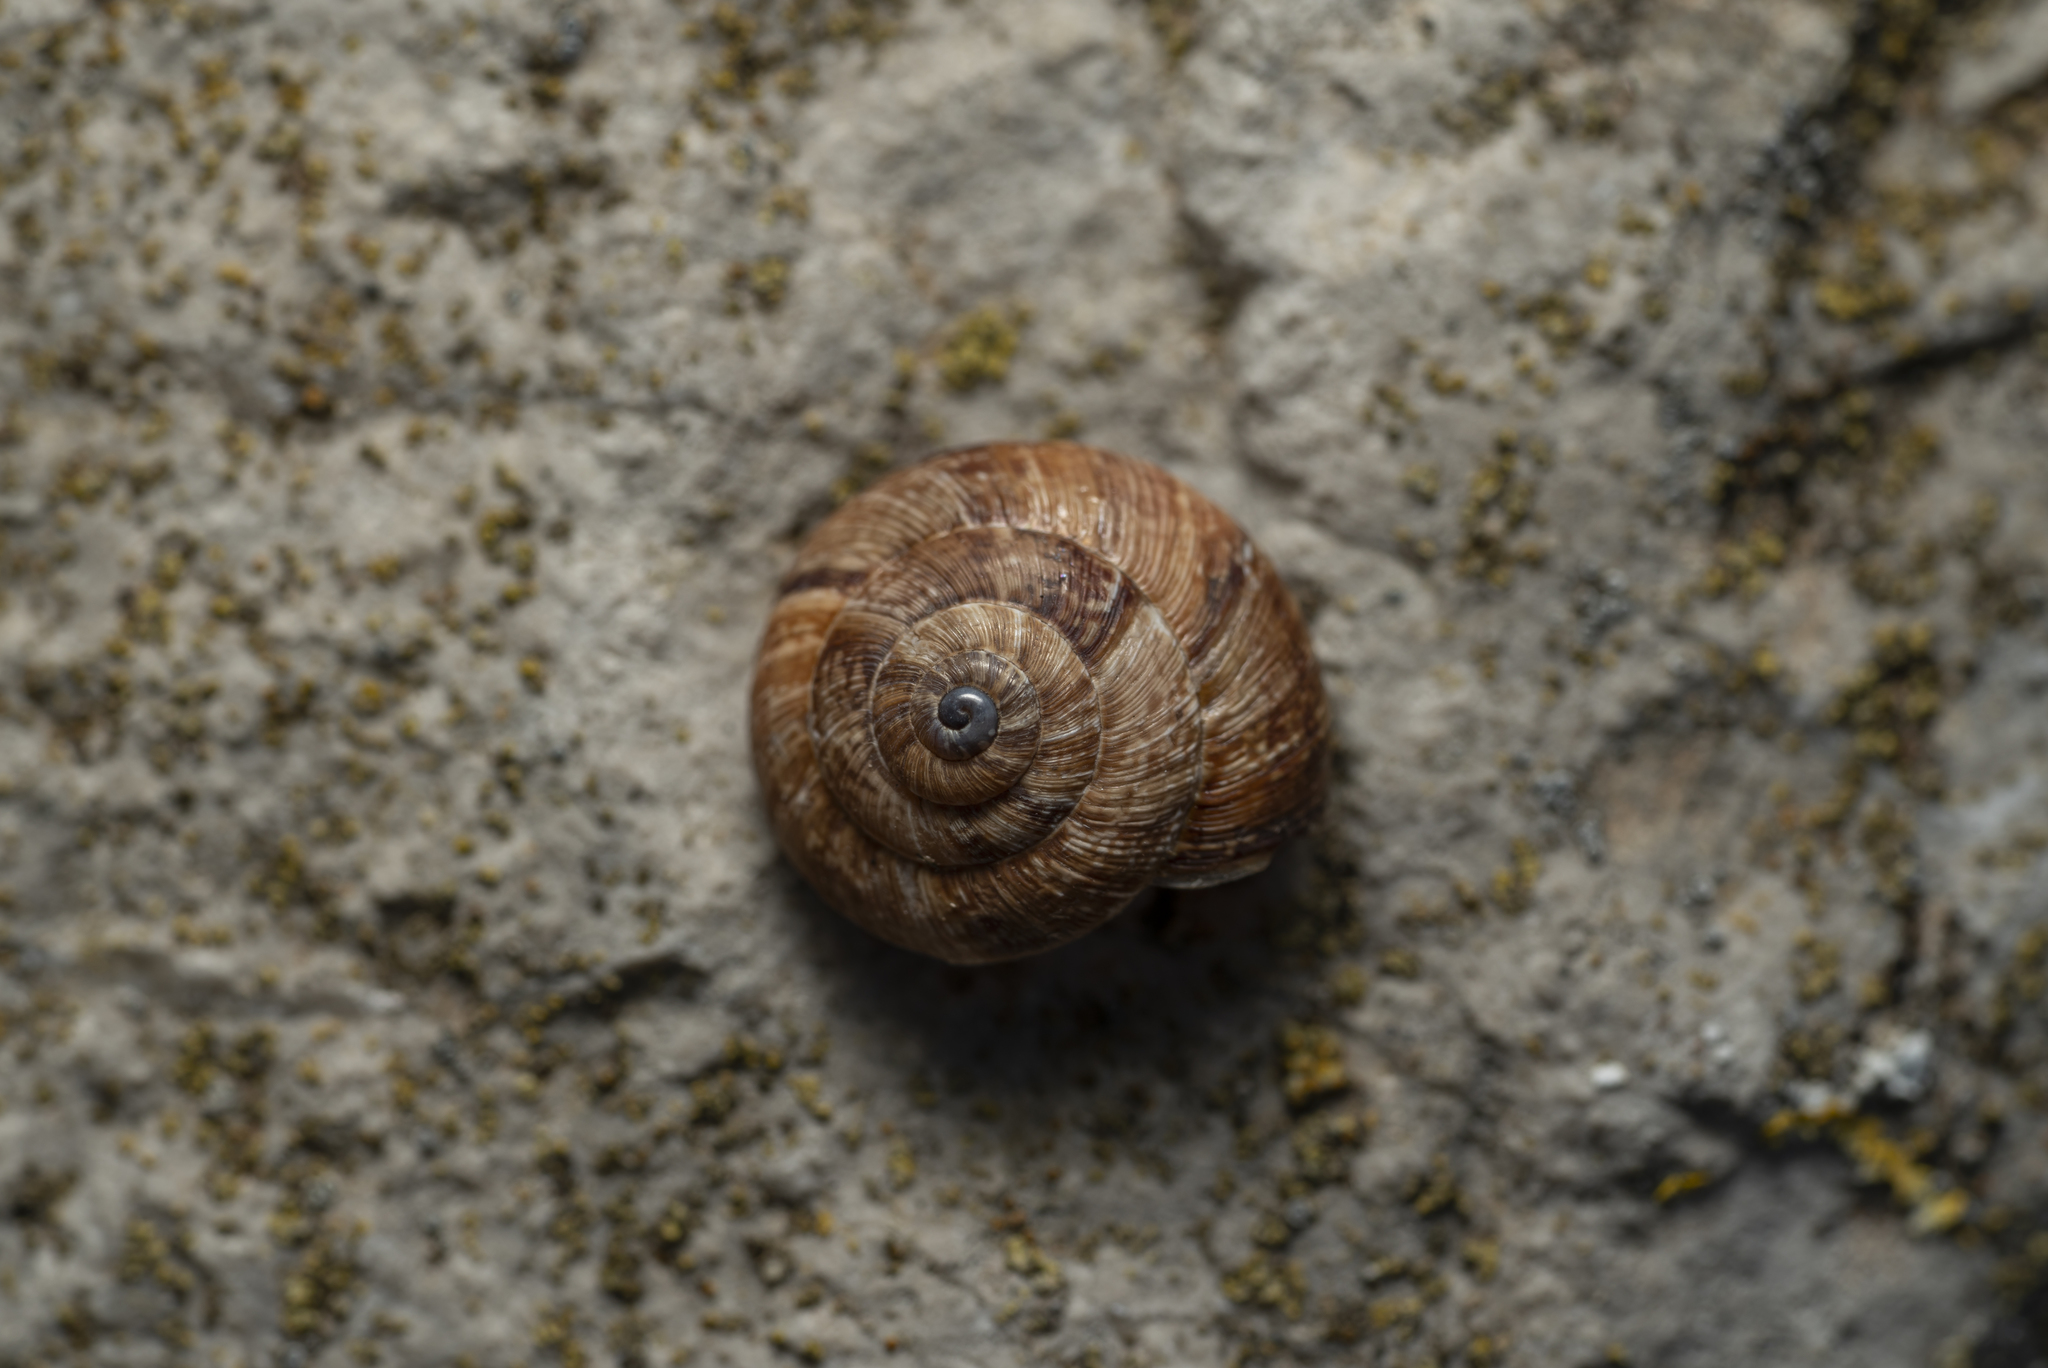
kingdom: Animalia
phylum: Mollusca
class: Gastropoda
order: Stylommatophora
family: Geomitridae
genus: Xerocrassa
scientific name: Xerocrassa cretica
